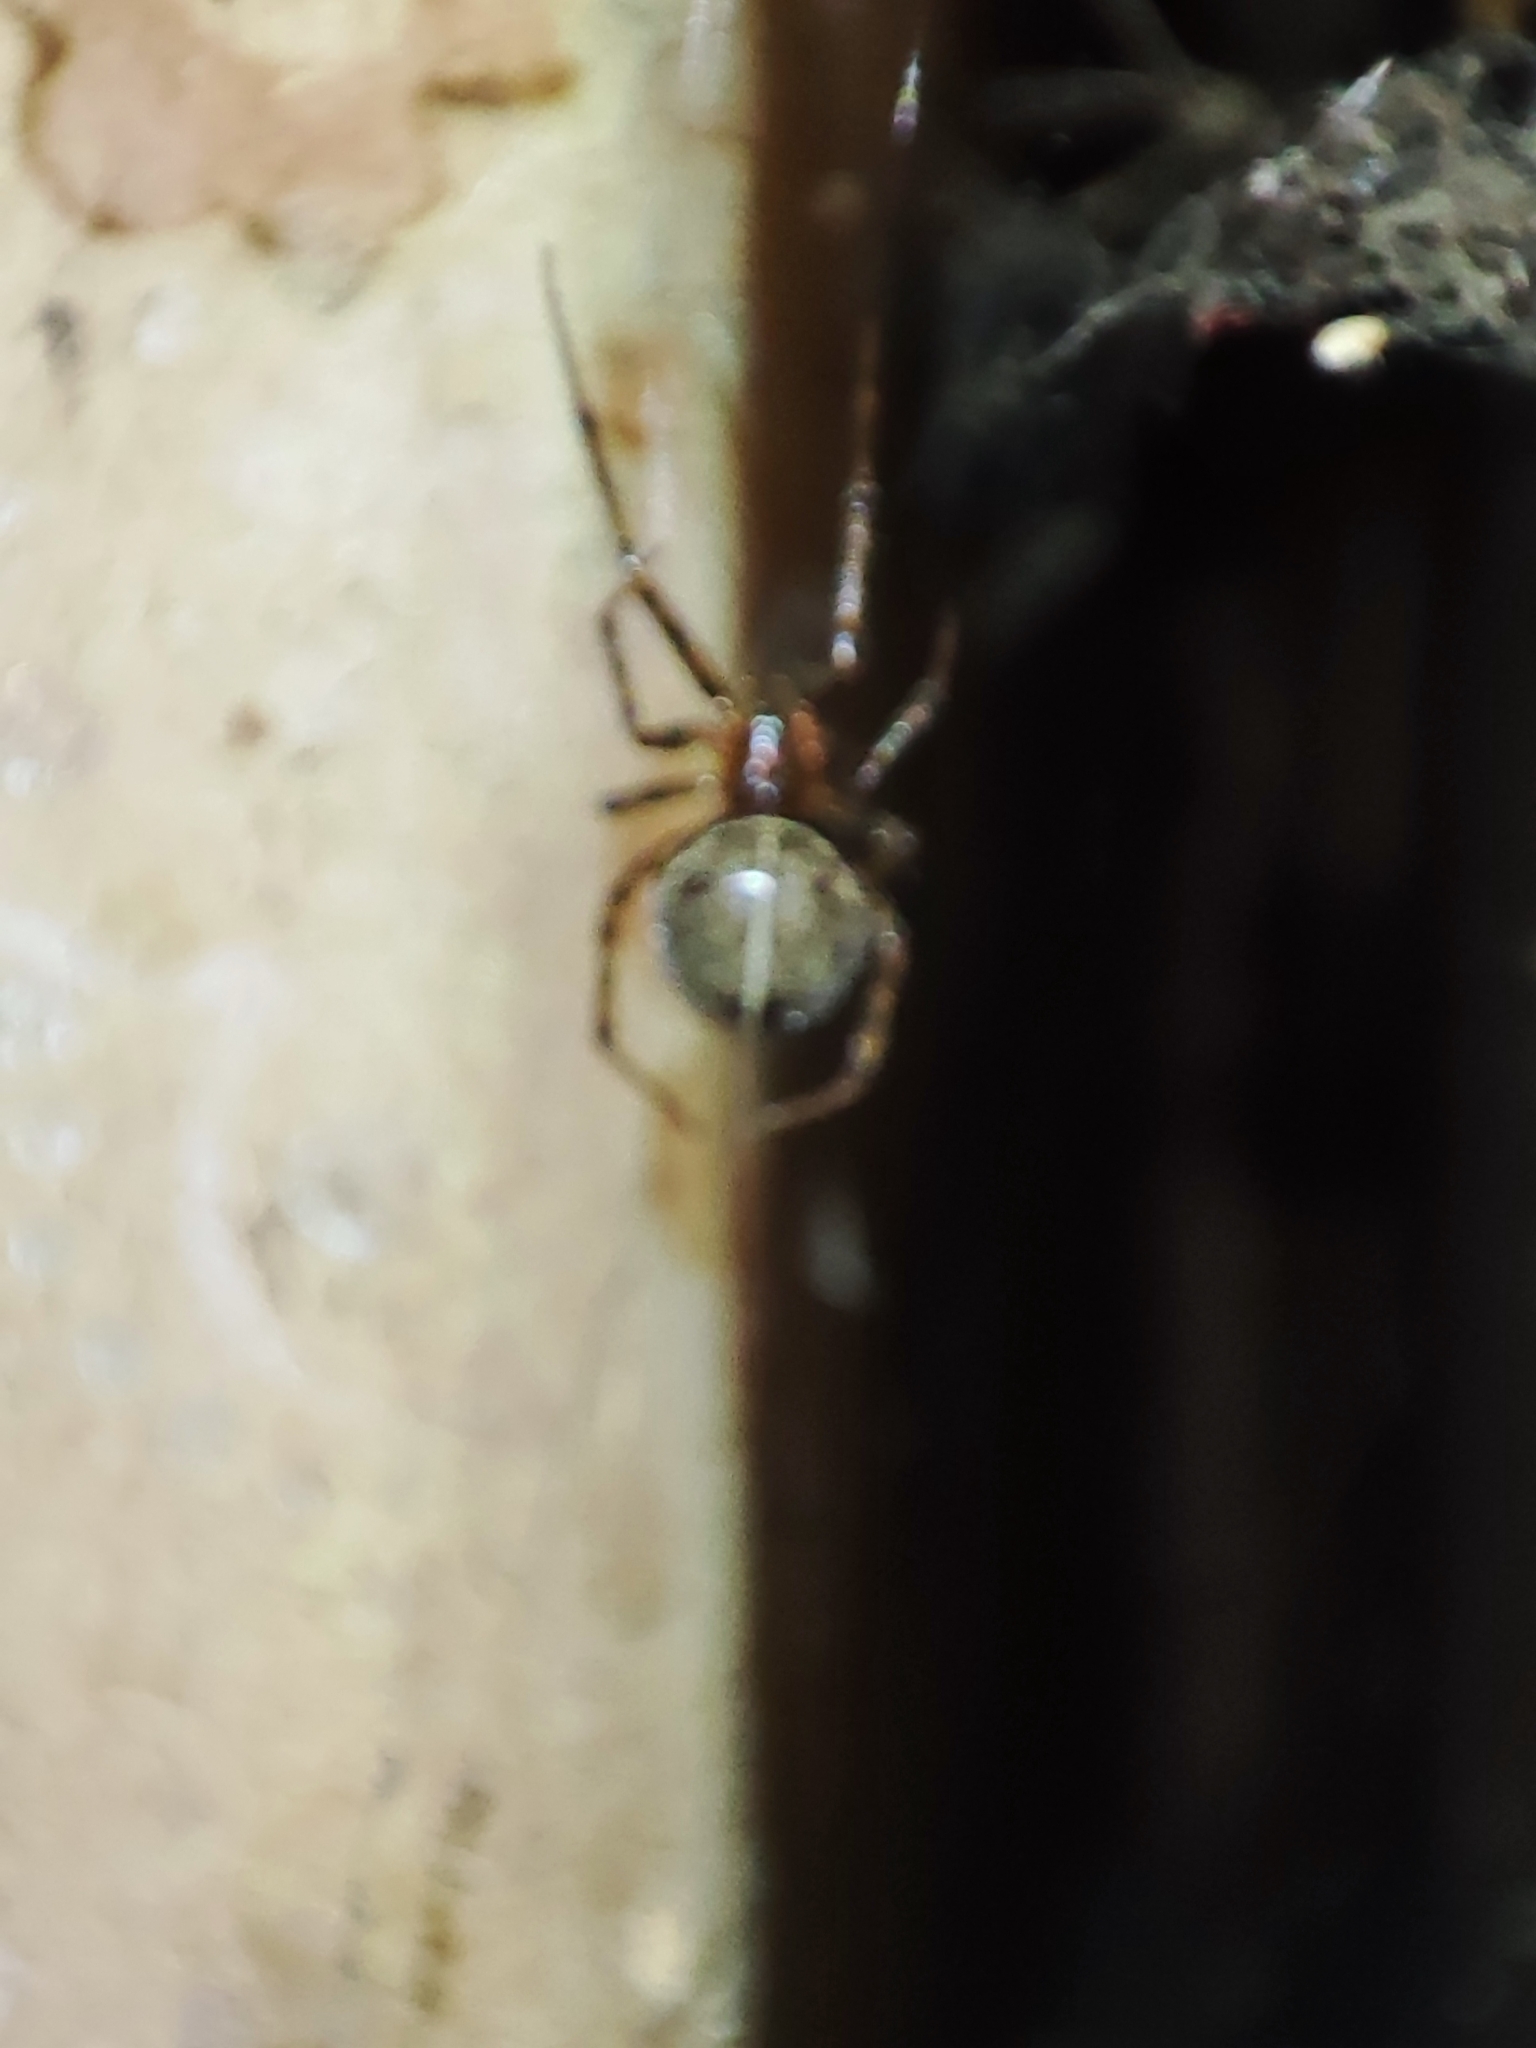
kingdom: Animalia
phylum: Arthropoda
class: Arachnida
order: Araneae
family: Theridiidae
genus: Steatoda
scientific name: Steatoda castanea
